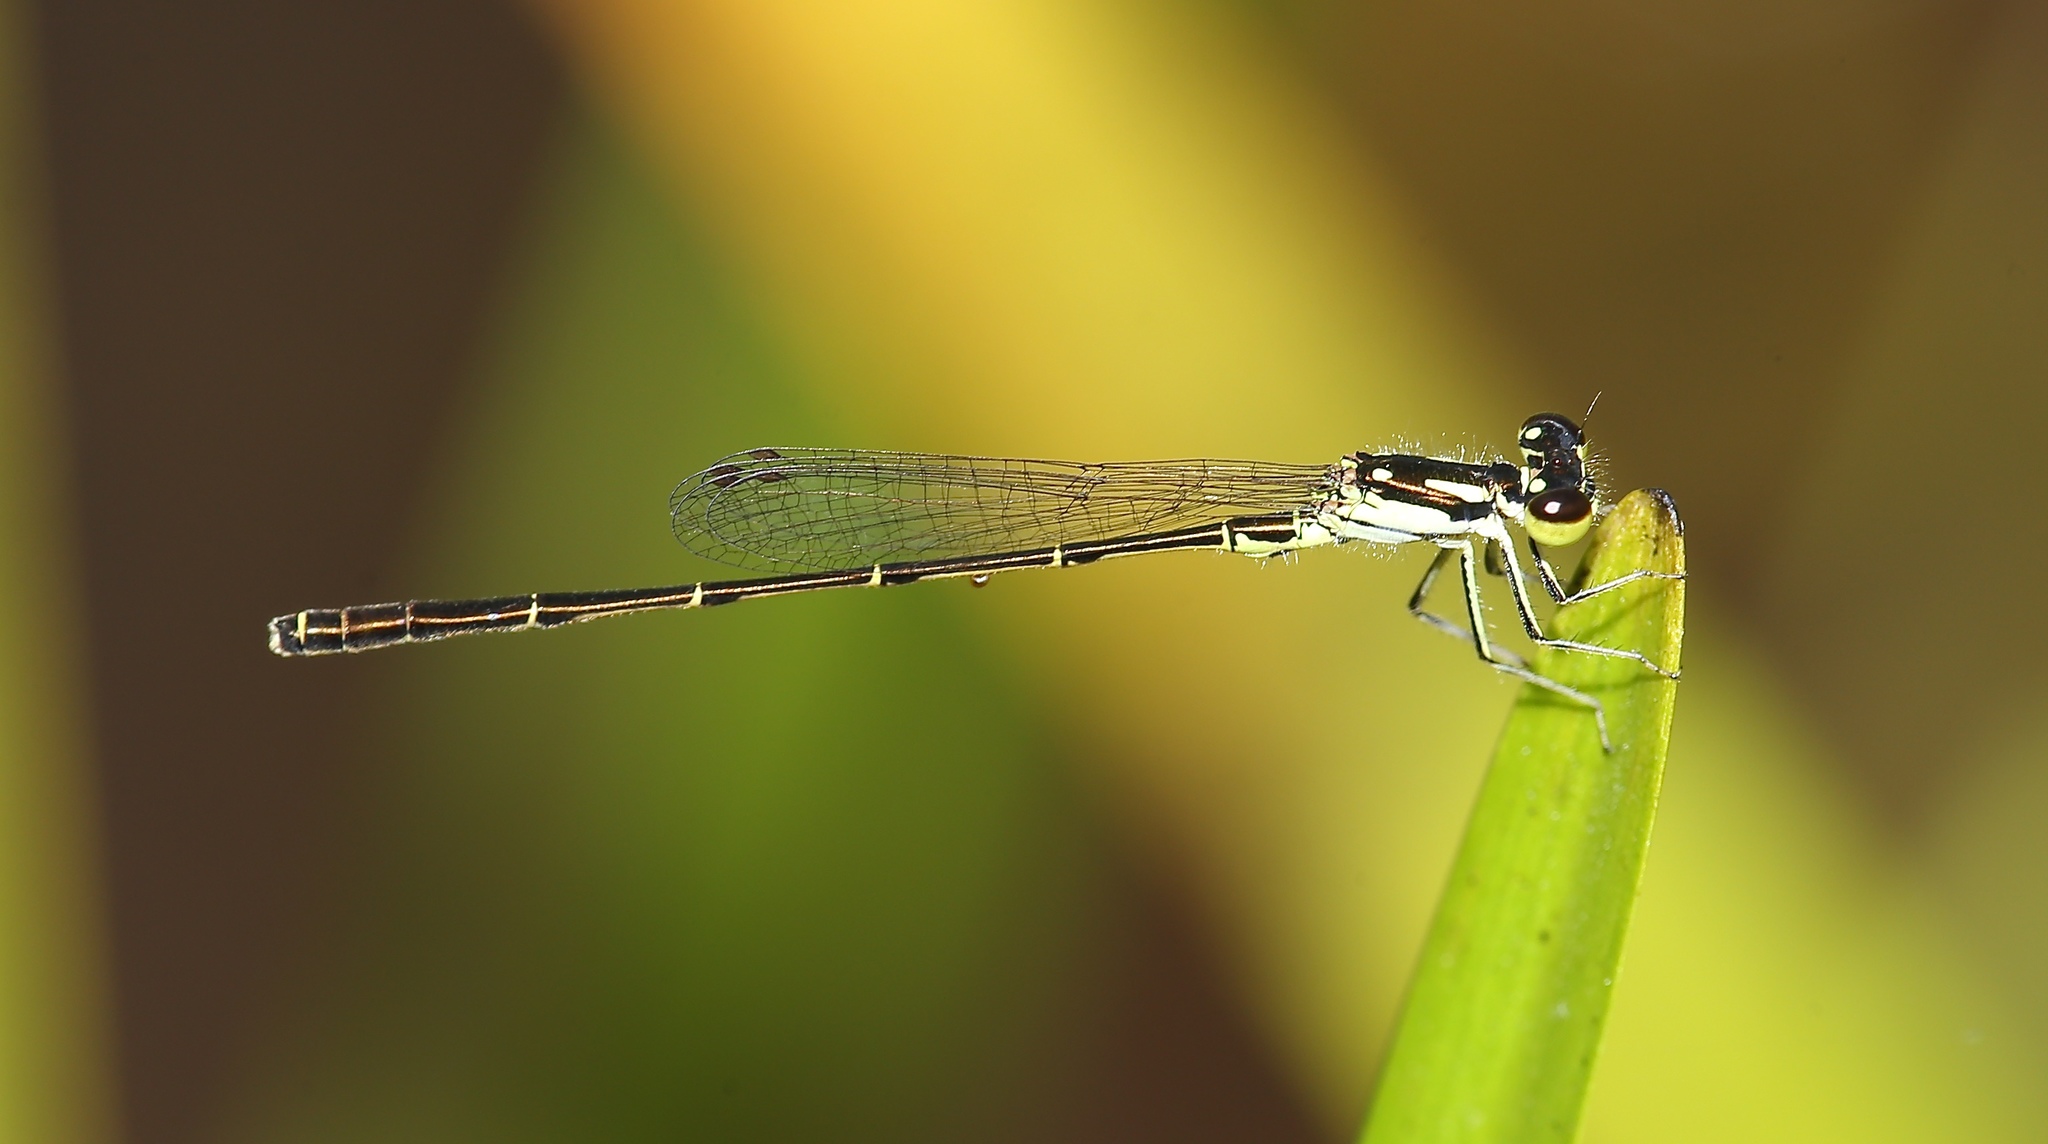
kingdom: Animalia
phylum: Arthropoda
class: Insecta
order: Odonata
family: Coenagrionidae
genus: Ischnura
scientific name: Ischnura posita
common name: Fragile forktail
